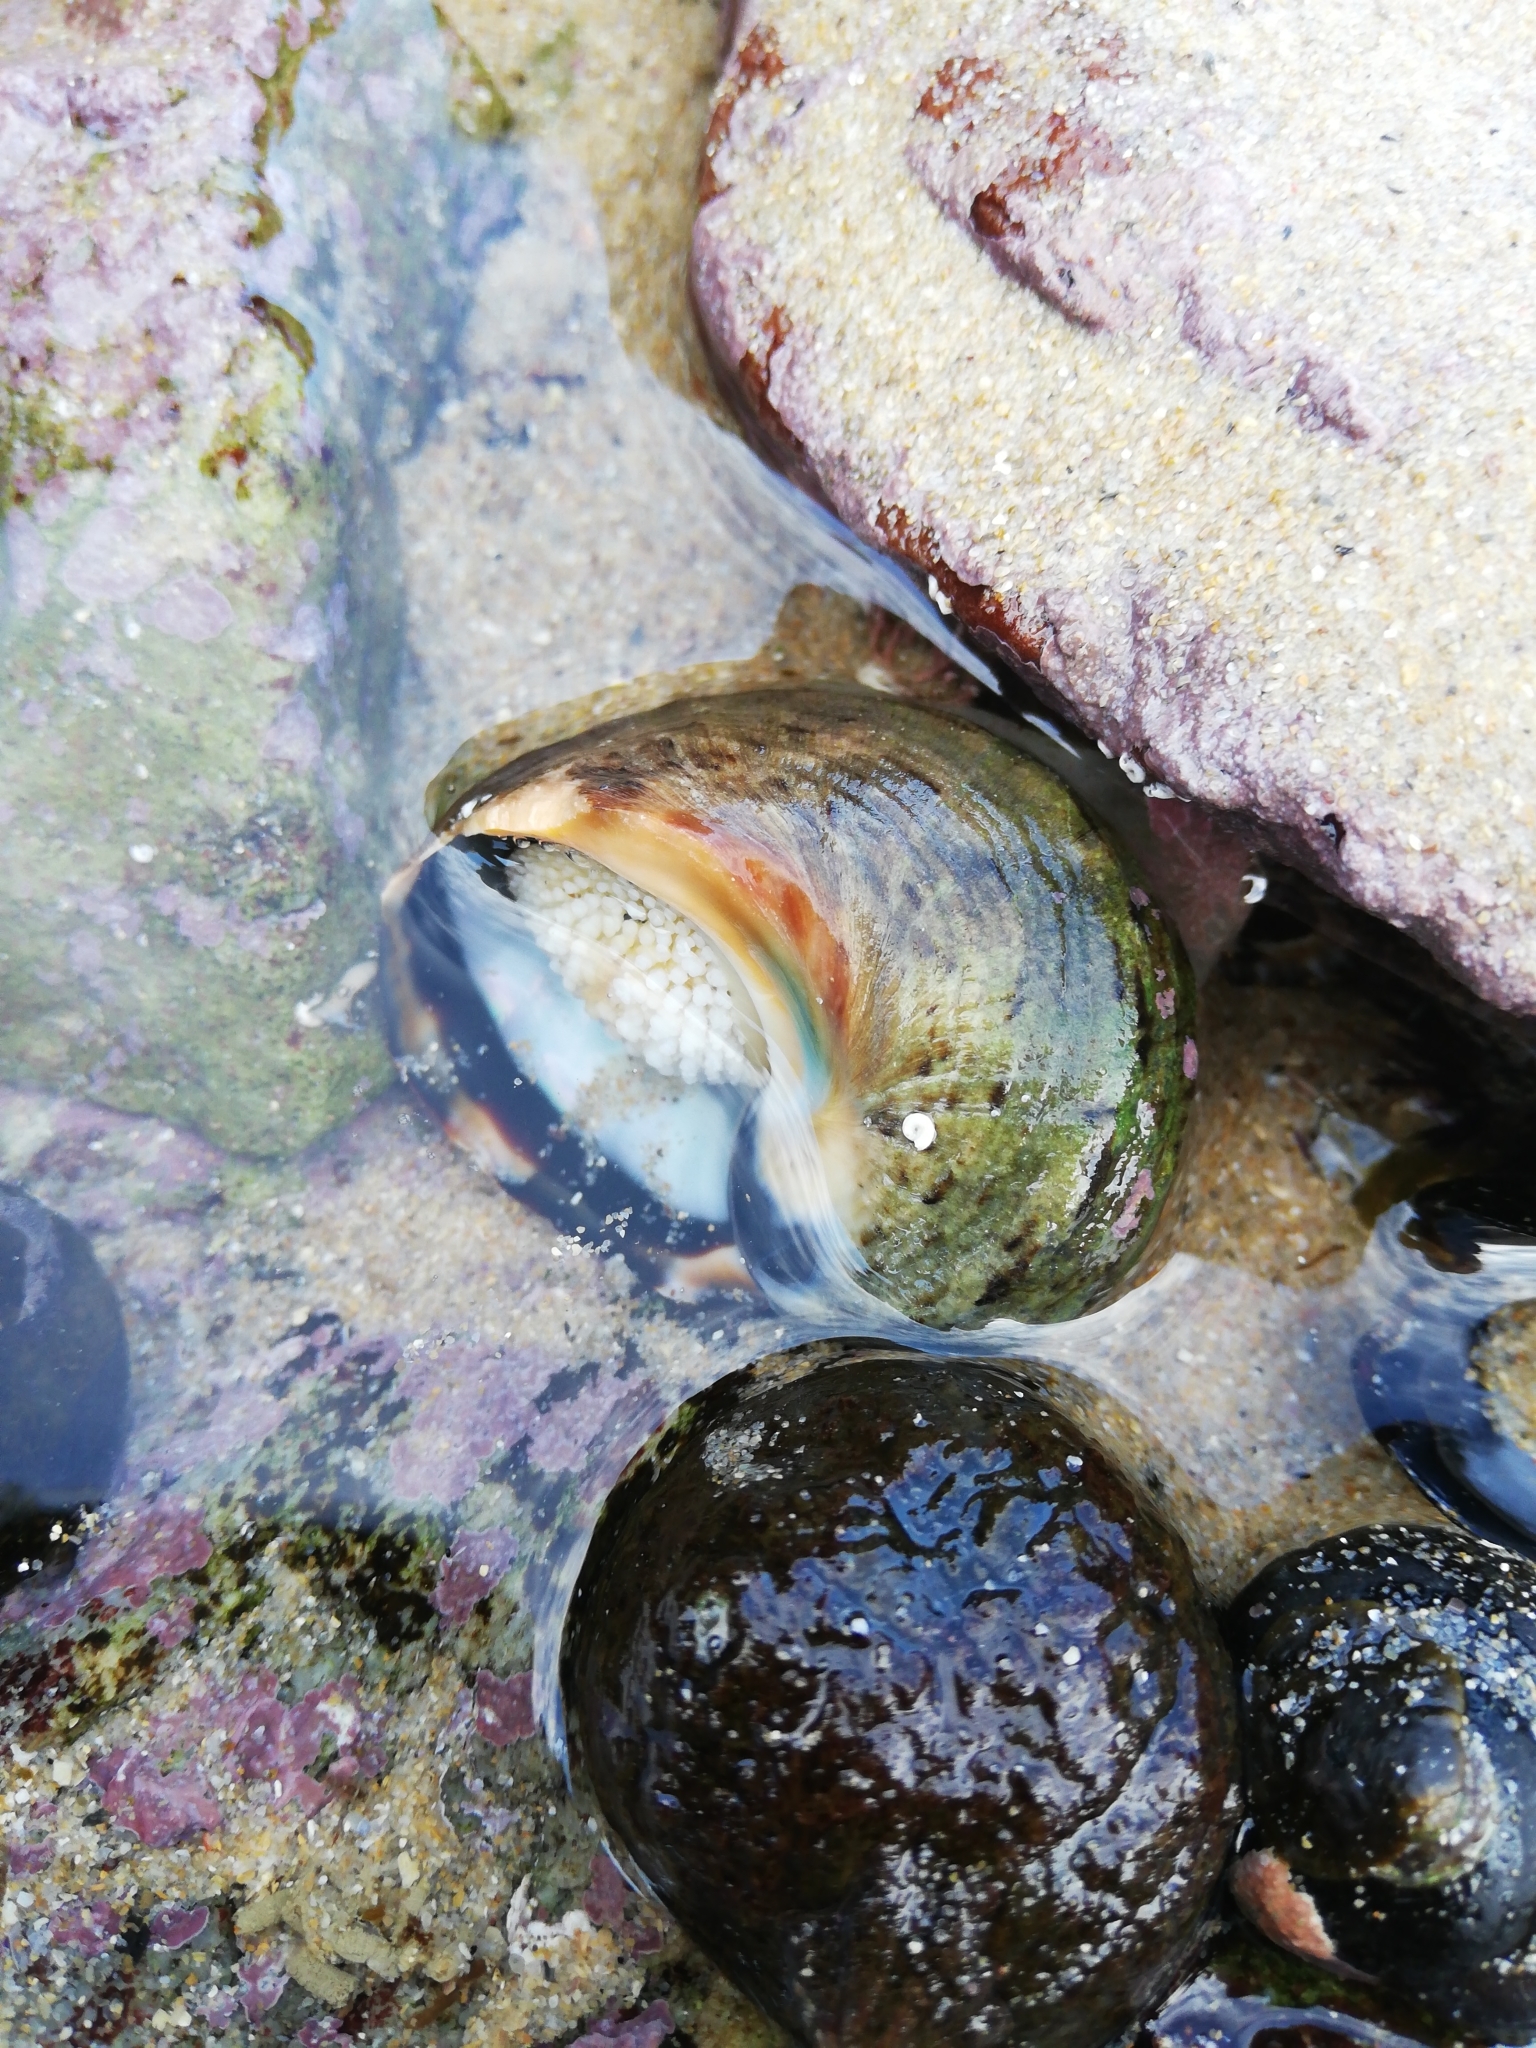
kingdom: Animalia
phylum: Mollusca
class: Gastropoda
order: Trochida
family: Turbinidae
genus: Turbo
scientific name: Turbo sarmaticus
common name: South african turban
